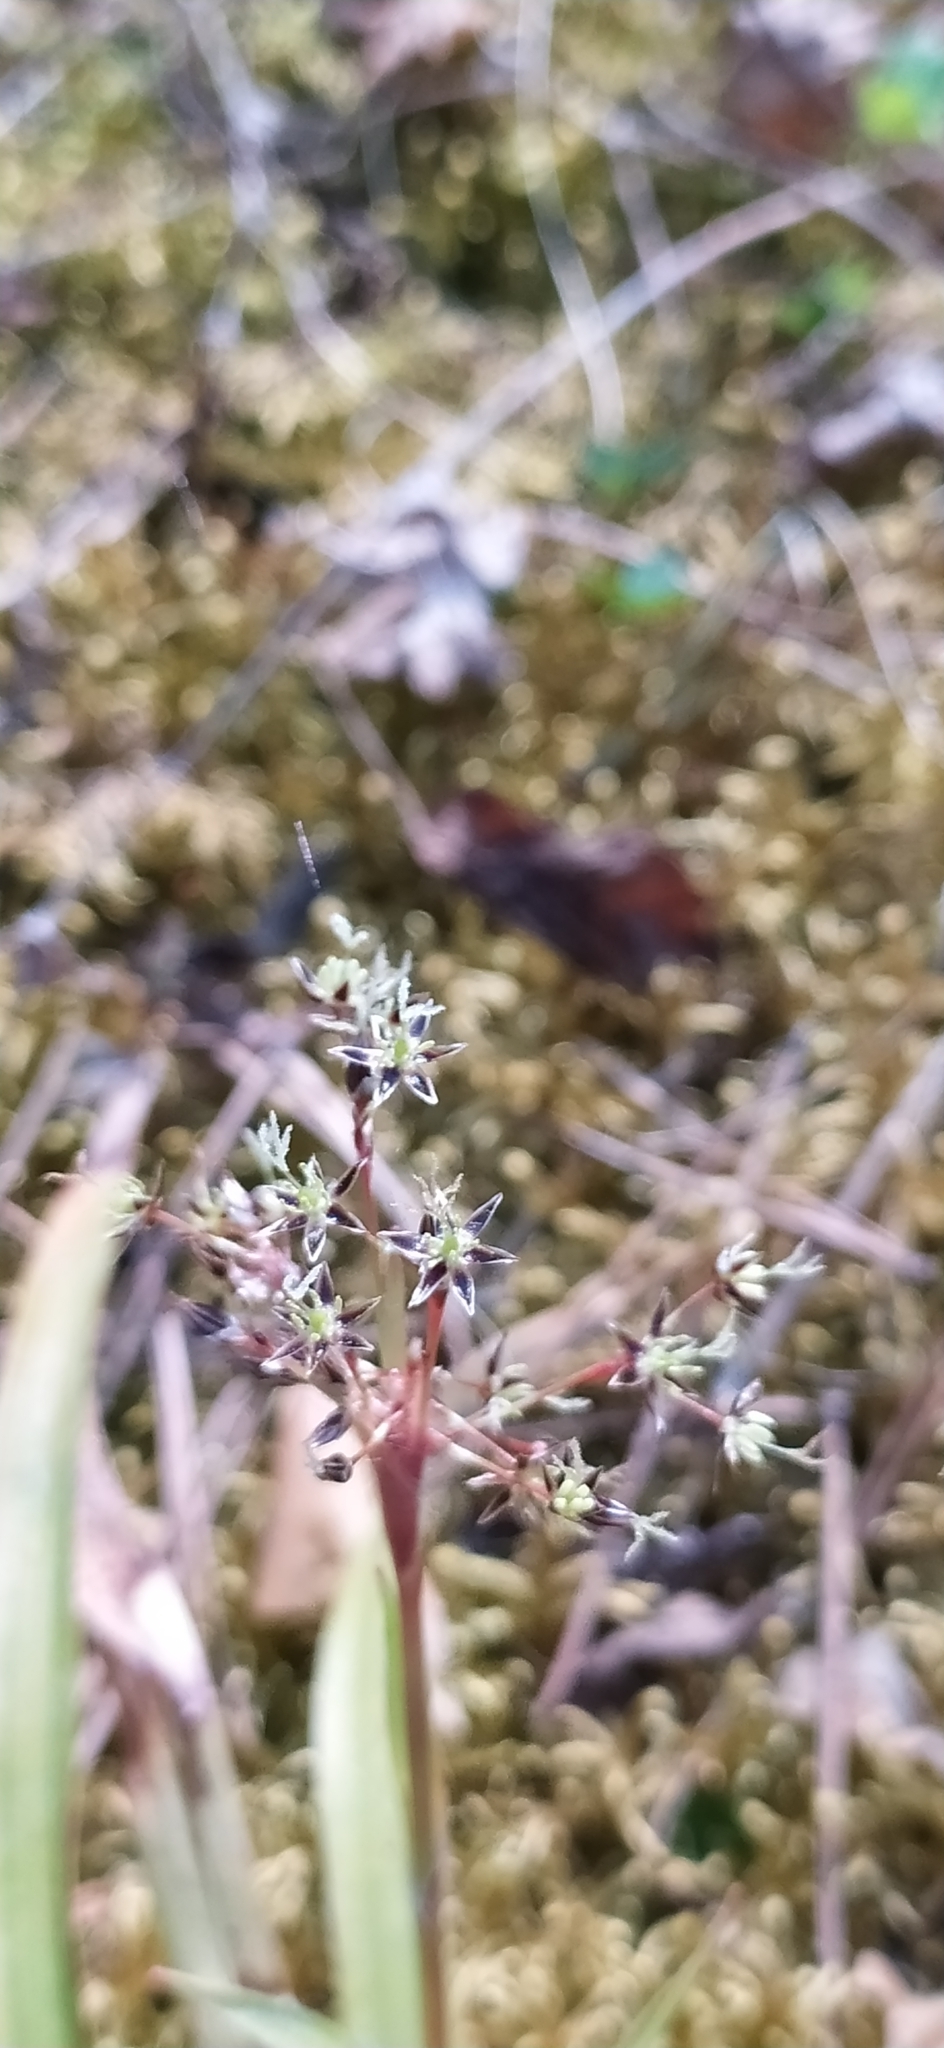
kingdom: Plantae
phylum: Tracheophyta
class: Liliopsida
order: Poales
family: Juncaceae
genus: Luzula
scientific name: Luzula pilosa
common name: Hairy wood-rush
